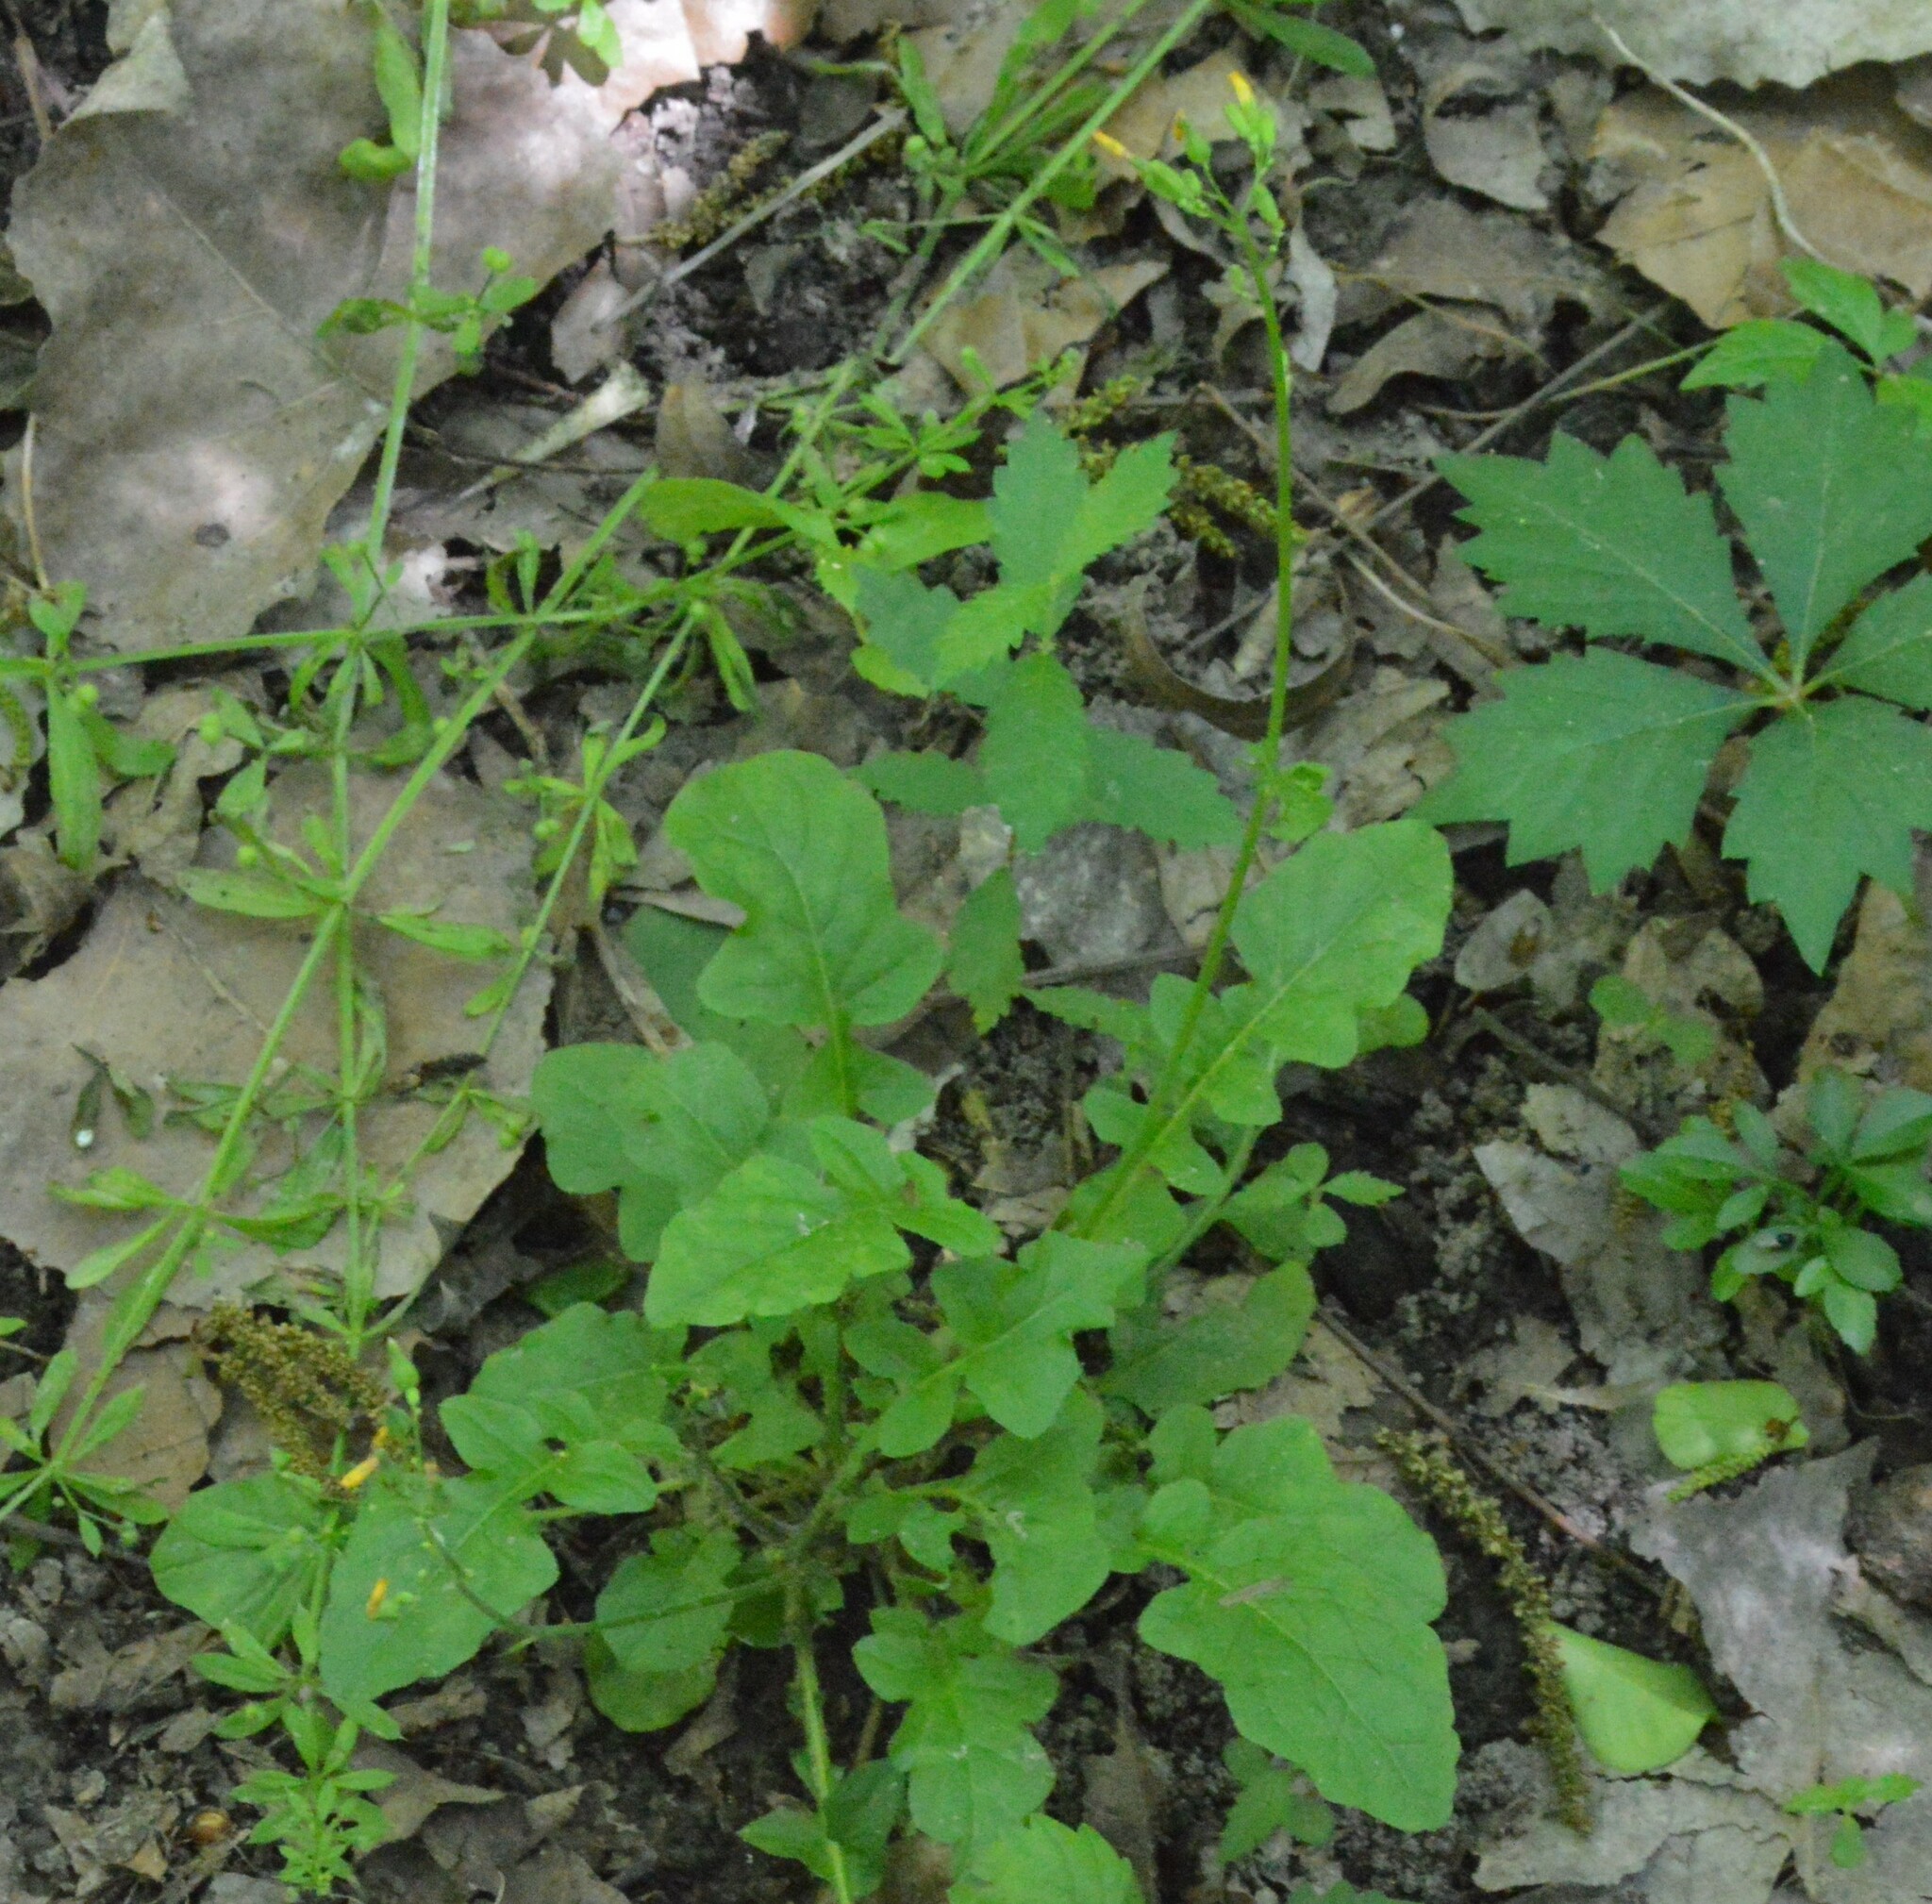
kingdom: Plantae
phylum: Tracheophyta
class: Magnoliopsida
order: Asterales
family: Asteraceae
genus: Youngia
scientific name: Youngia japonica
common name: Oriental false hawksbeard
